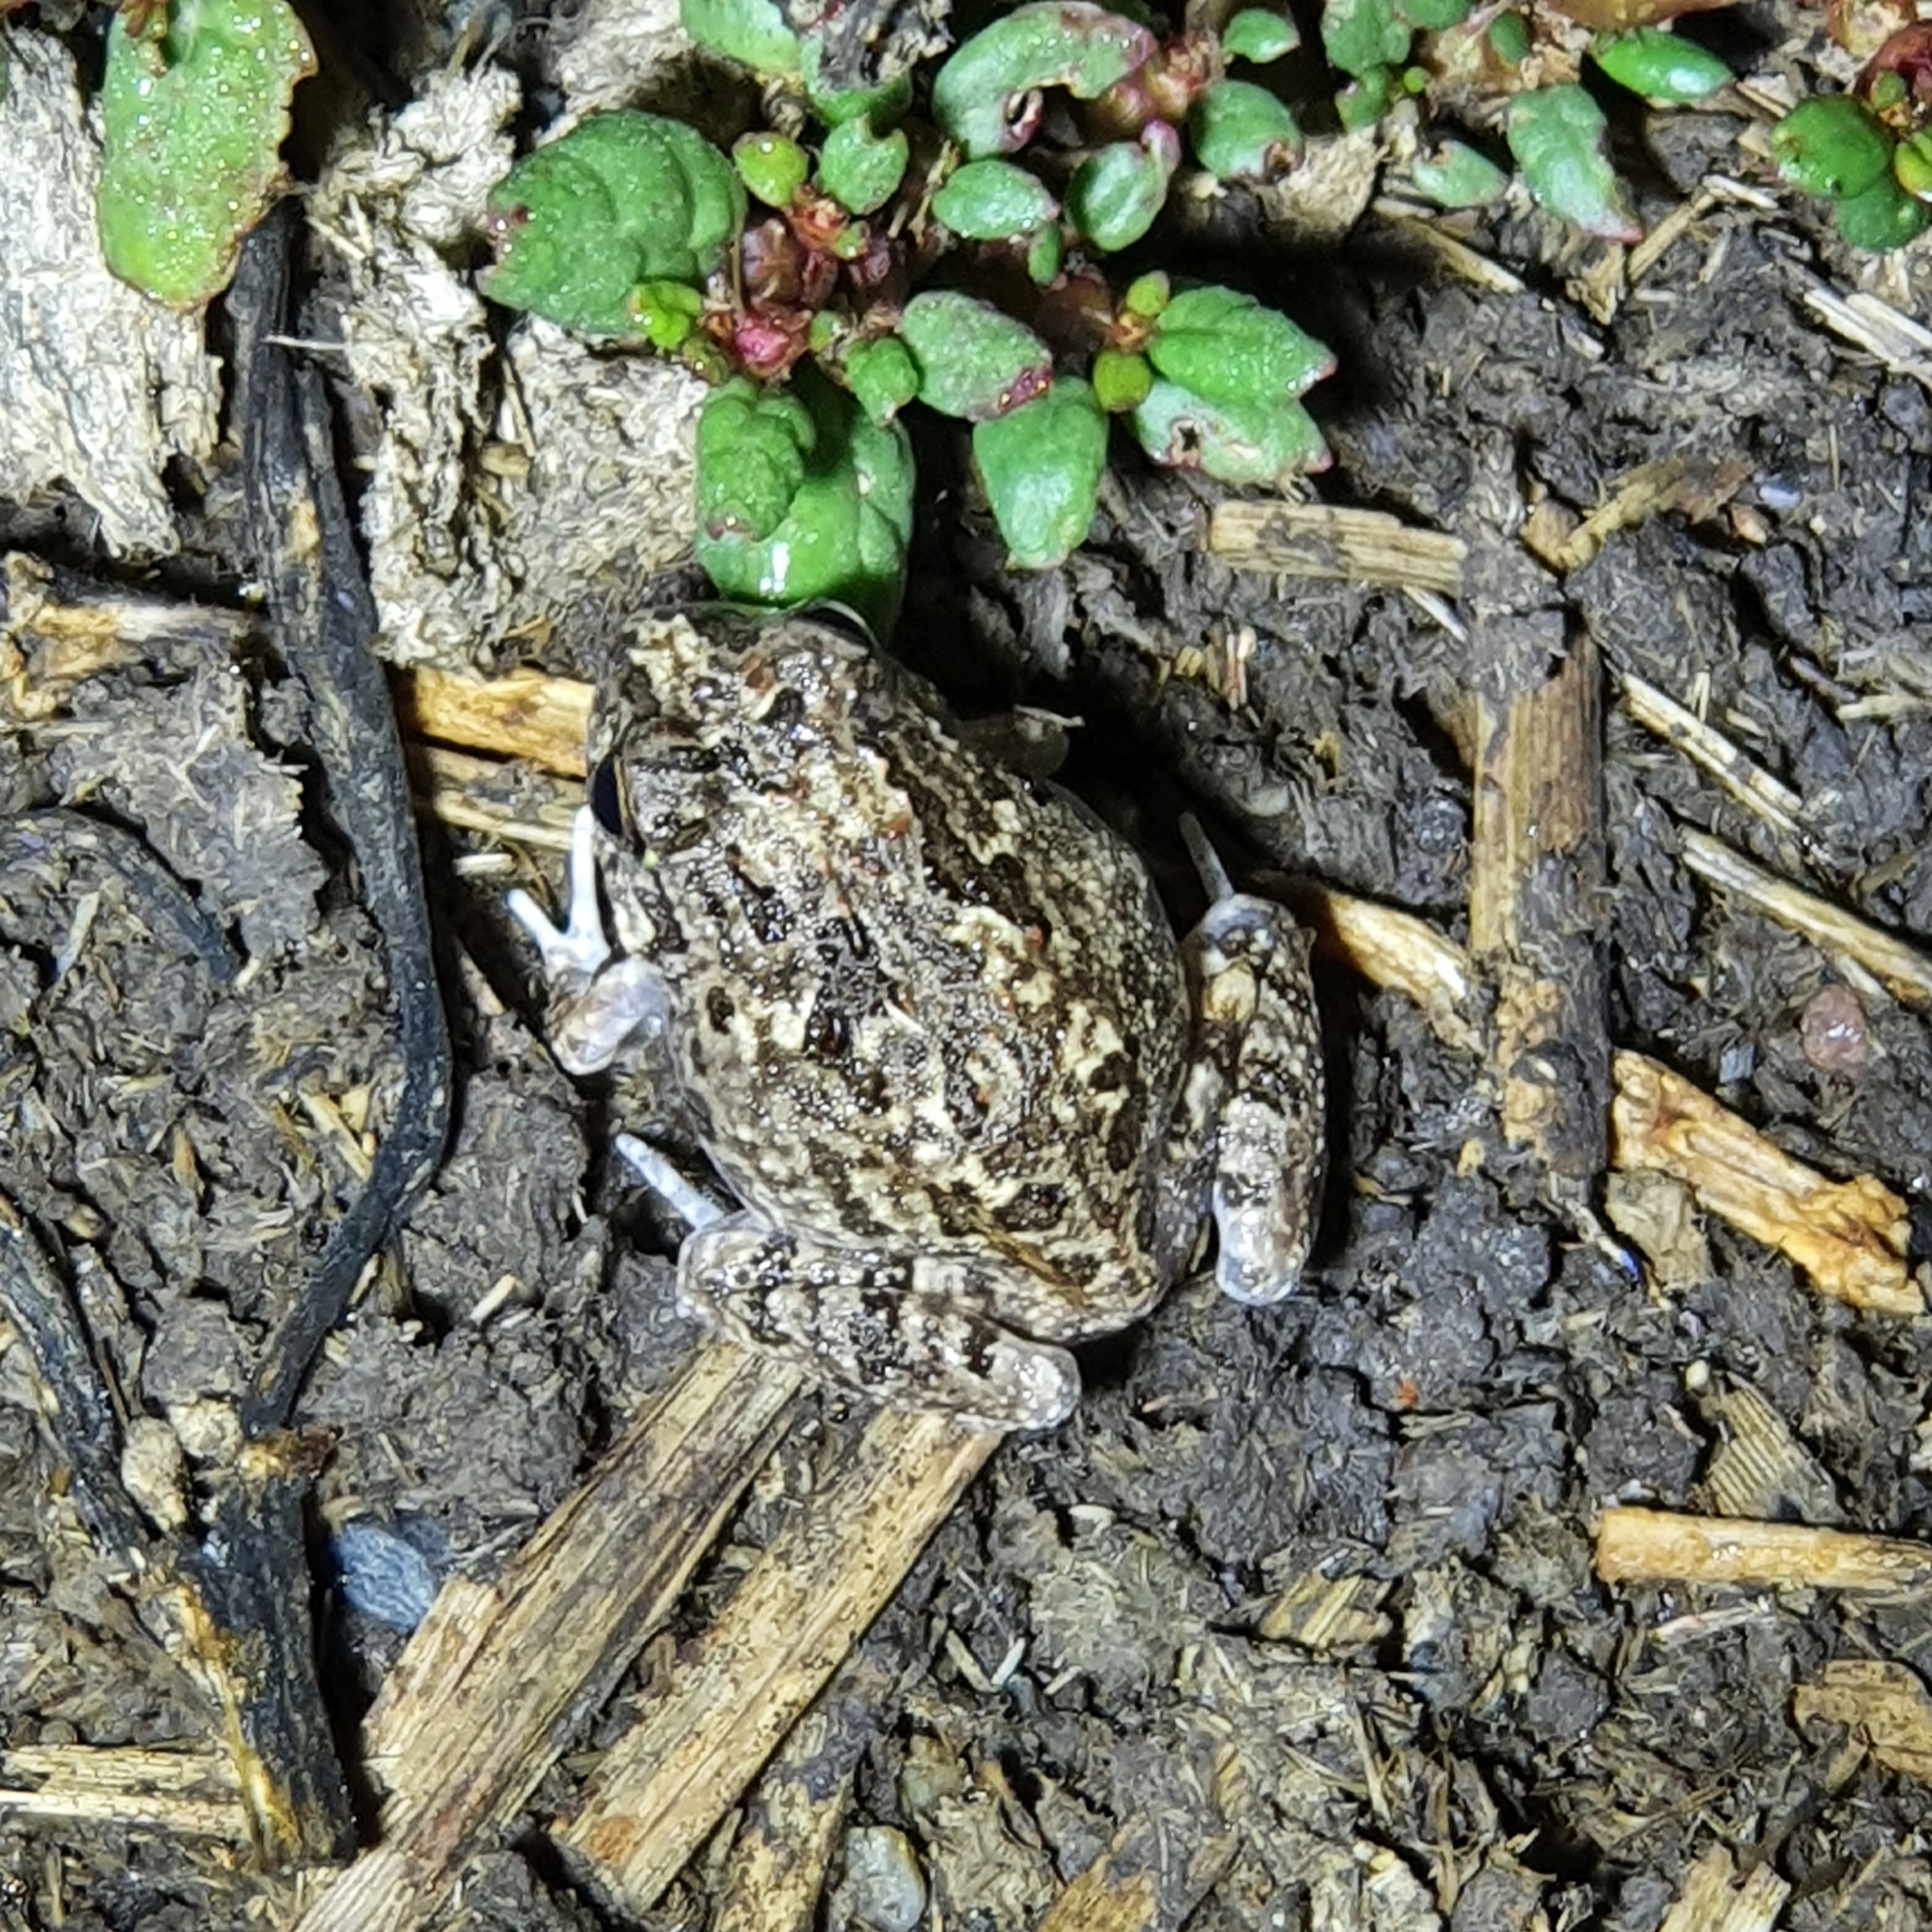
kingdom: Animalia
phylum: Chordata
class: Amphibia
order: Anura
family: Limnodynastidae
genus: Platyplectrum
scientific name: Platyplectrum ornatum
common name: Ornate burrowing frog
